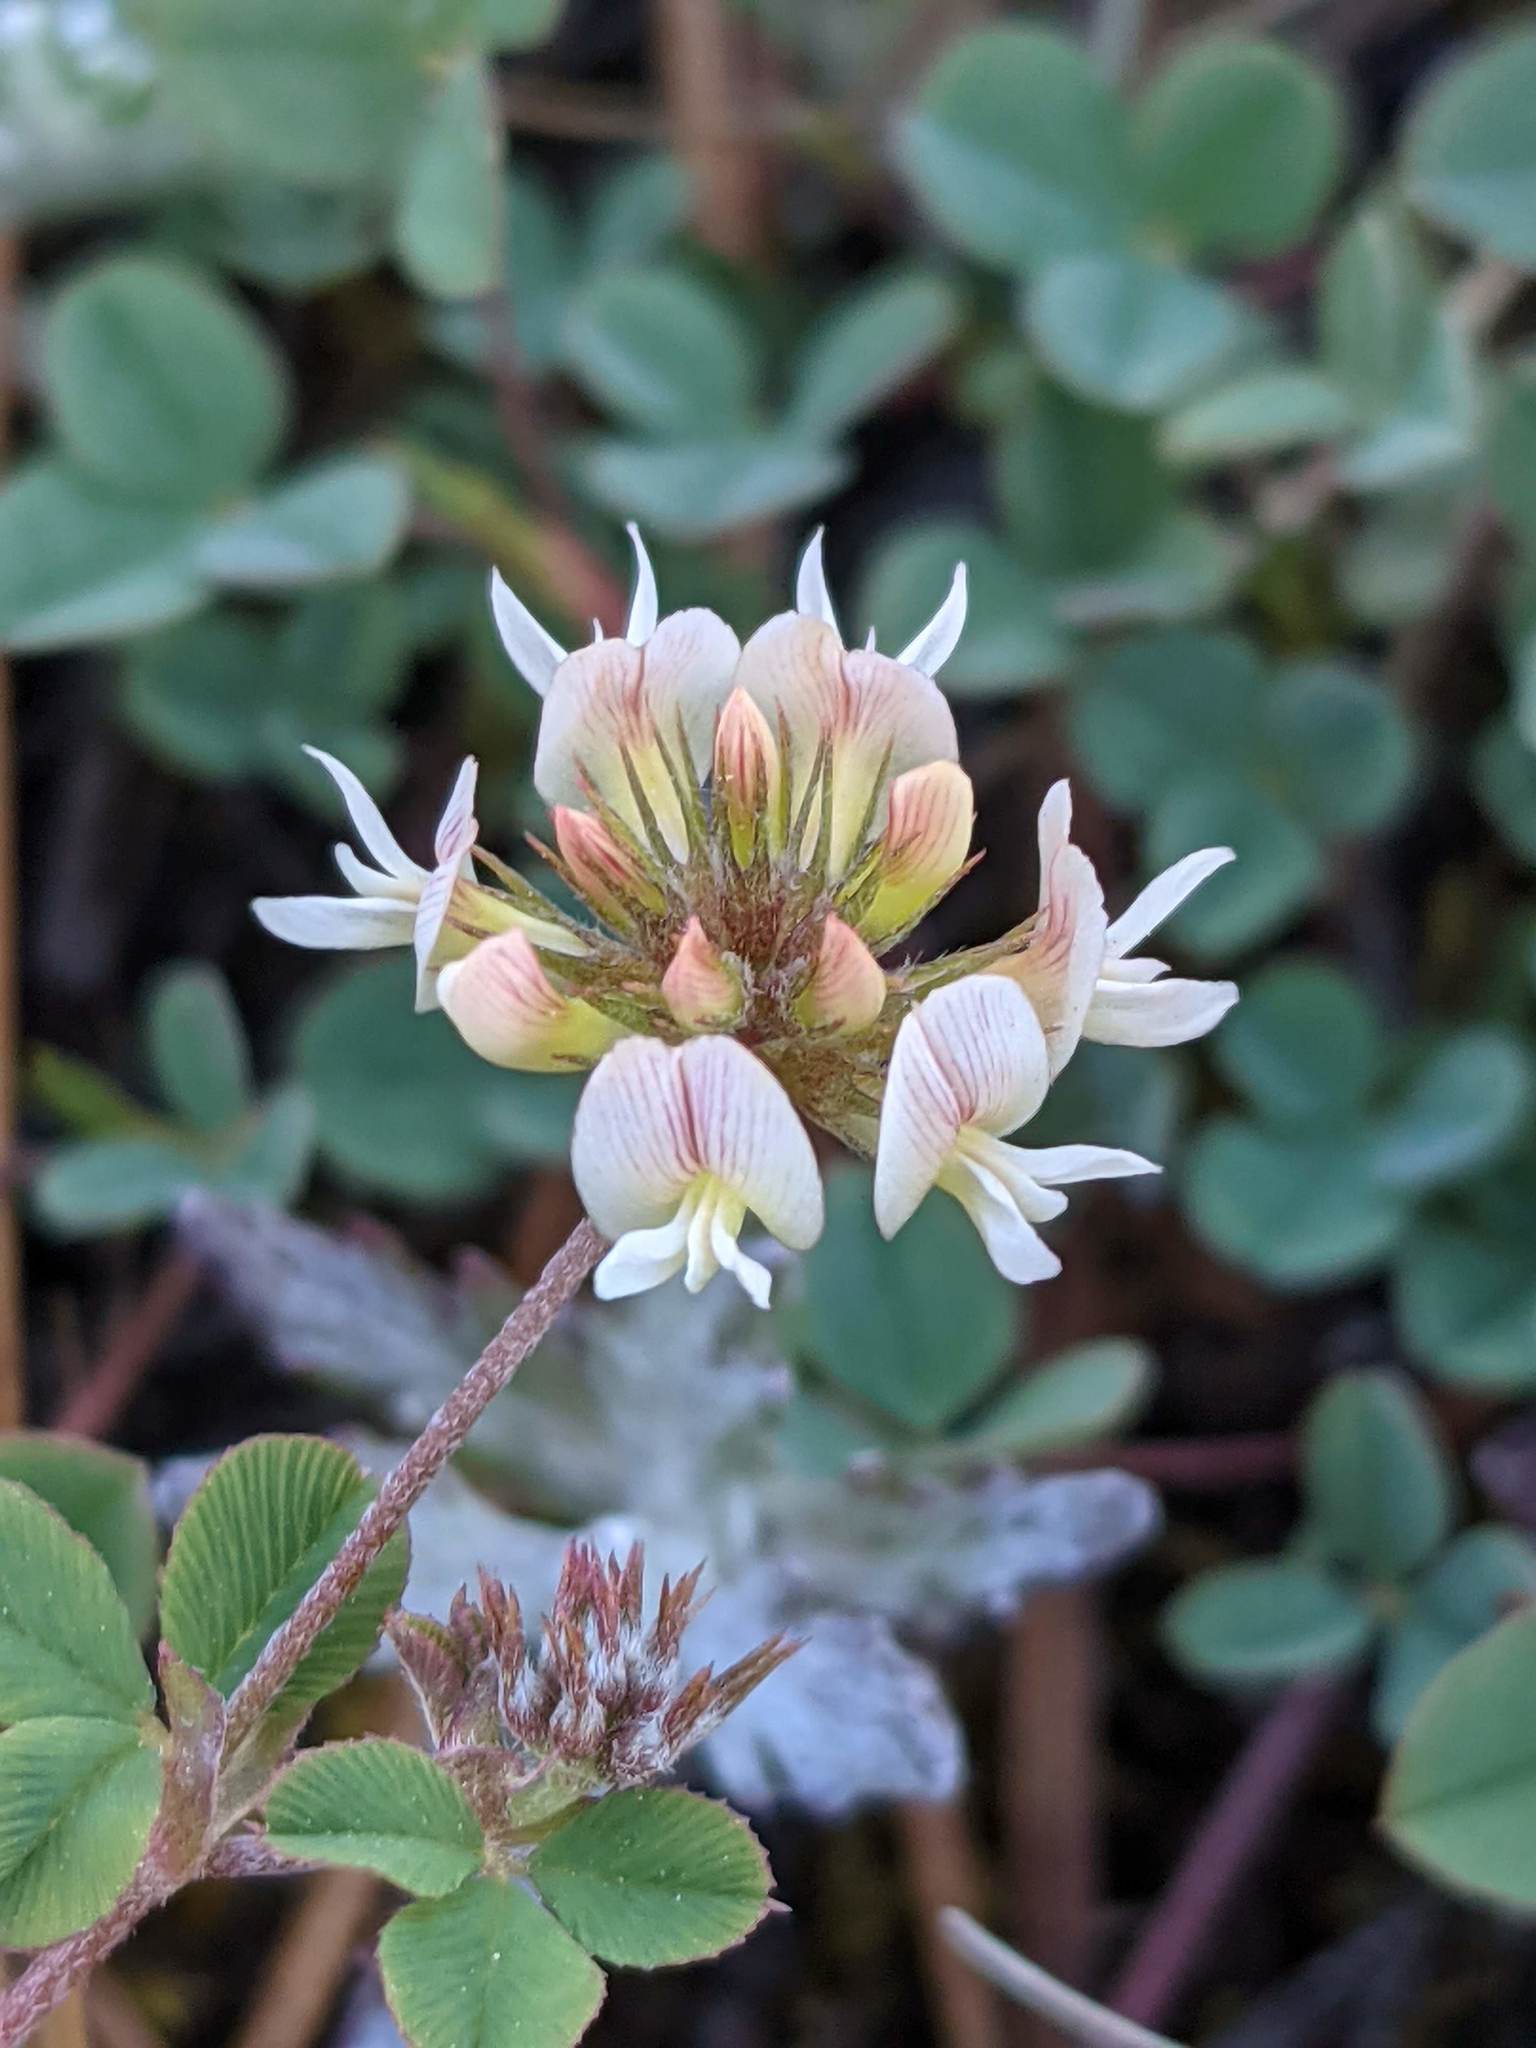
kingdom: Plantae
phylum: Tracheophyta
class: Magnoliopsida
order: Fabales
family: Fabaceae
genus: Trifolium
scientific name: Trifolium breweri
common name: Forest clover
